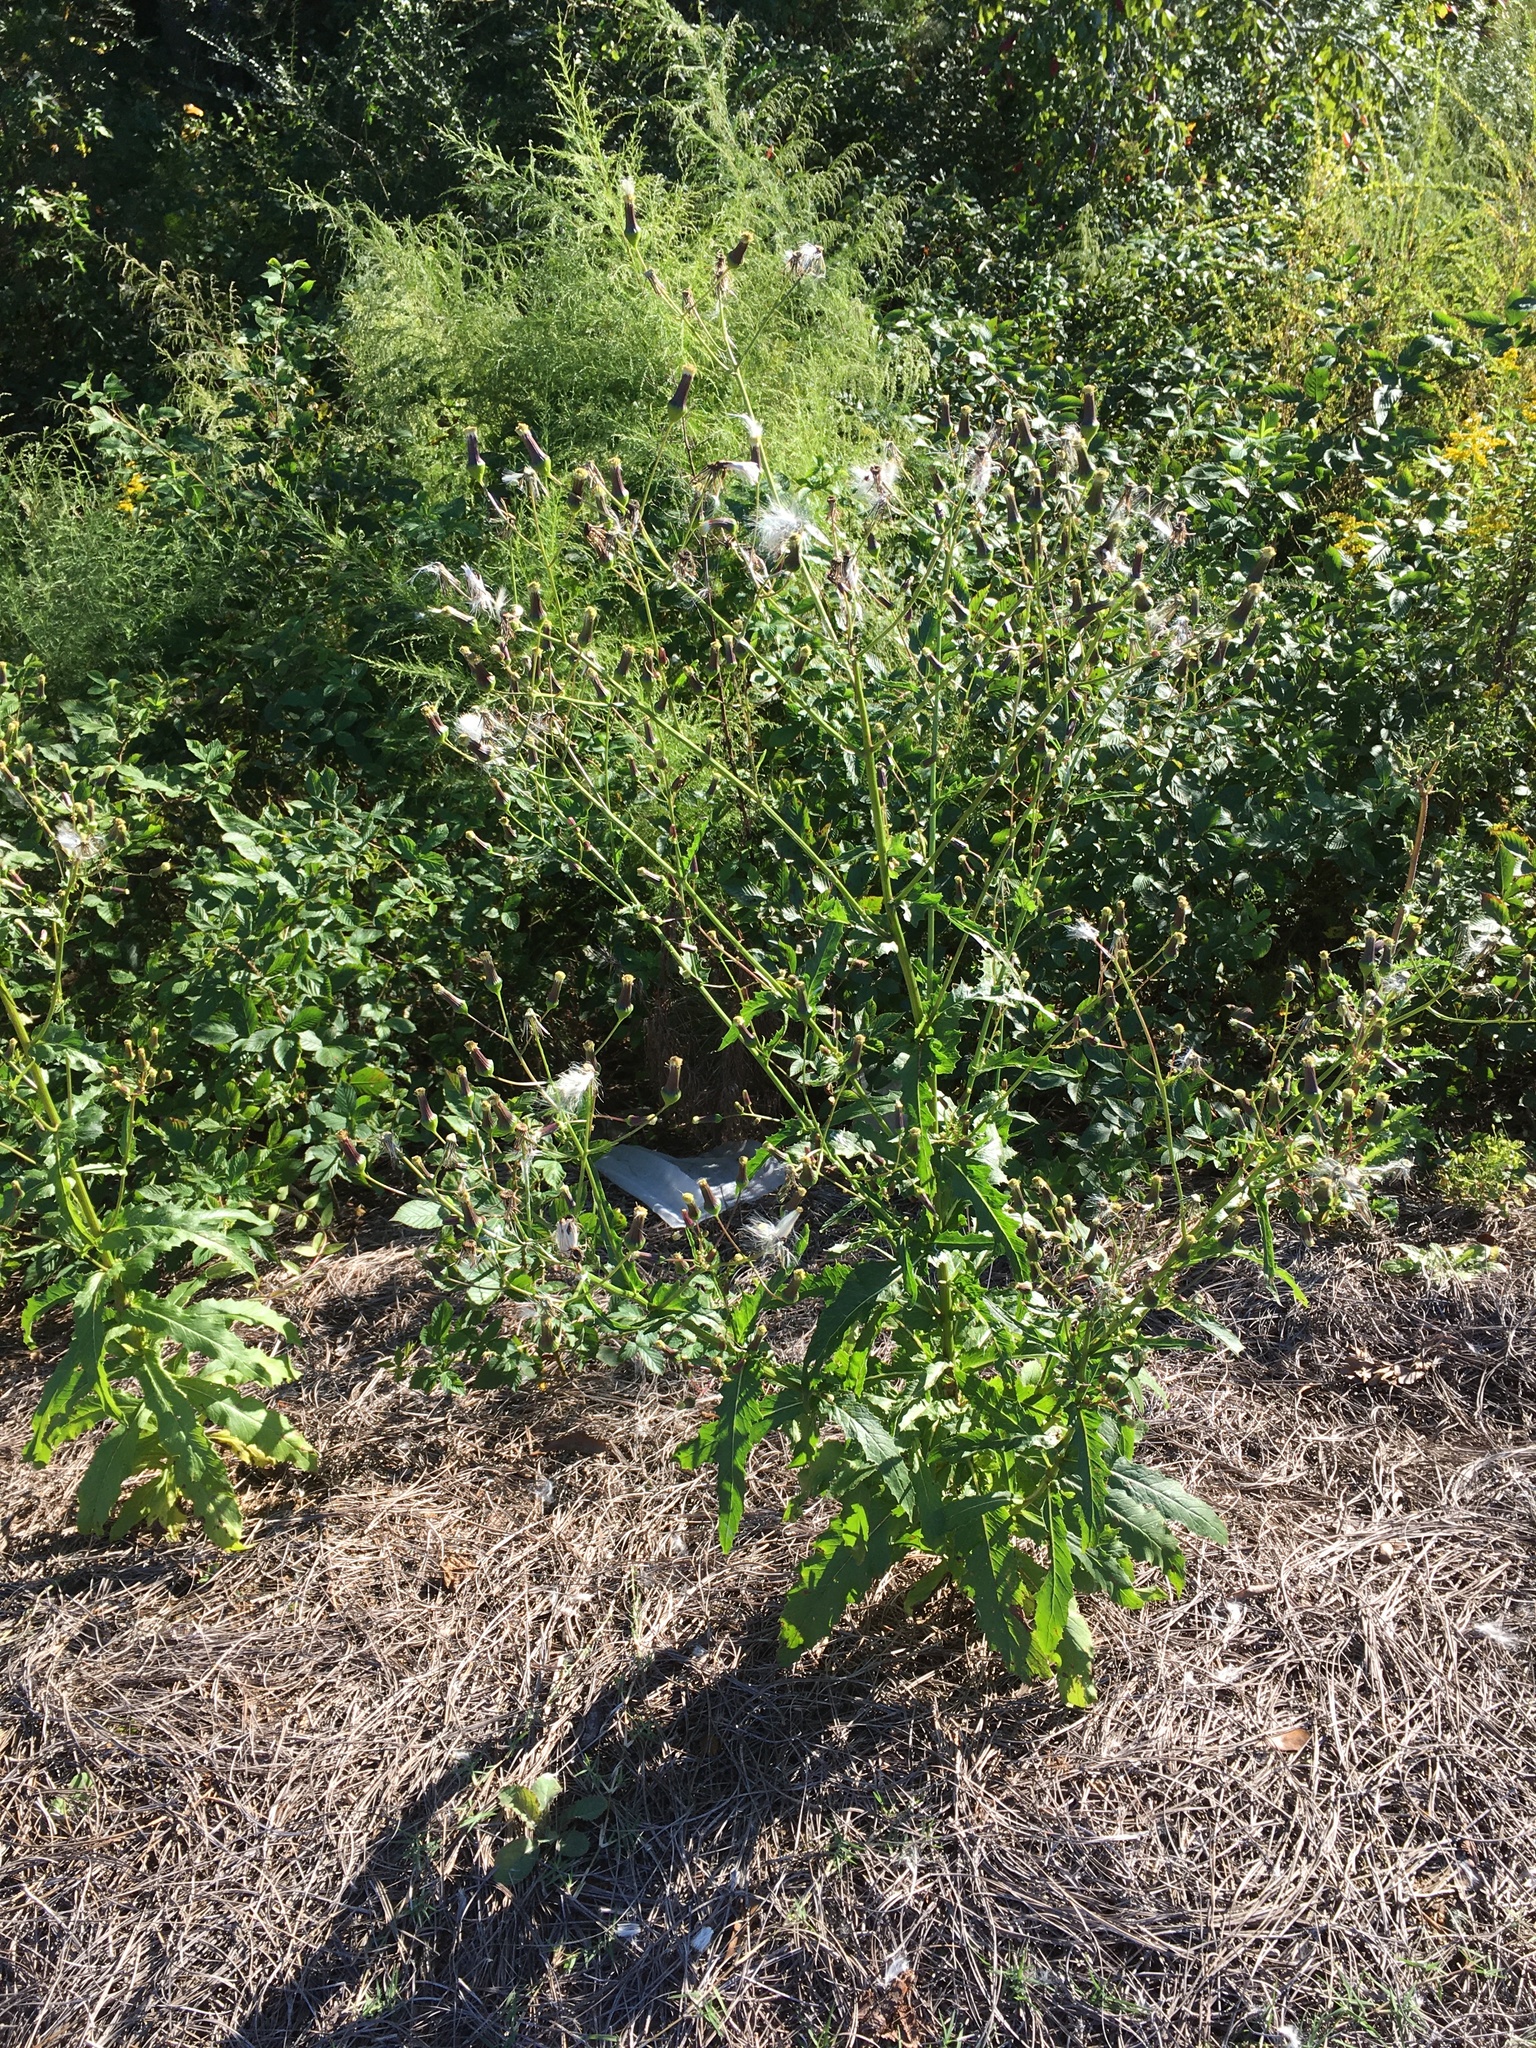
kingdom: Plantae
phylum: Tracheophyta
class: Magnoliopsida
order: Asterales
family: Asteraceae
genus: Erechtites
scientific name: Erechtites hieraciifolius
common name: American burnweed
